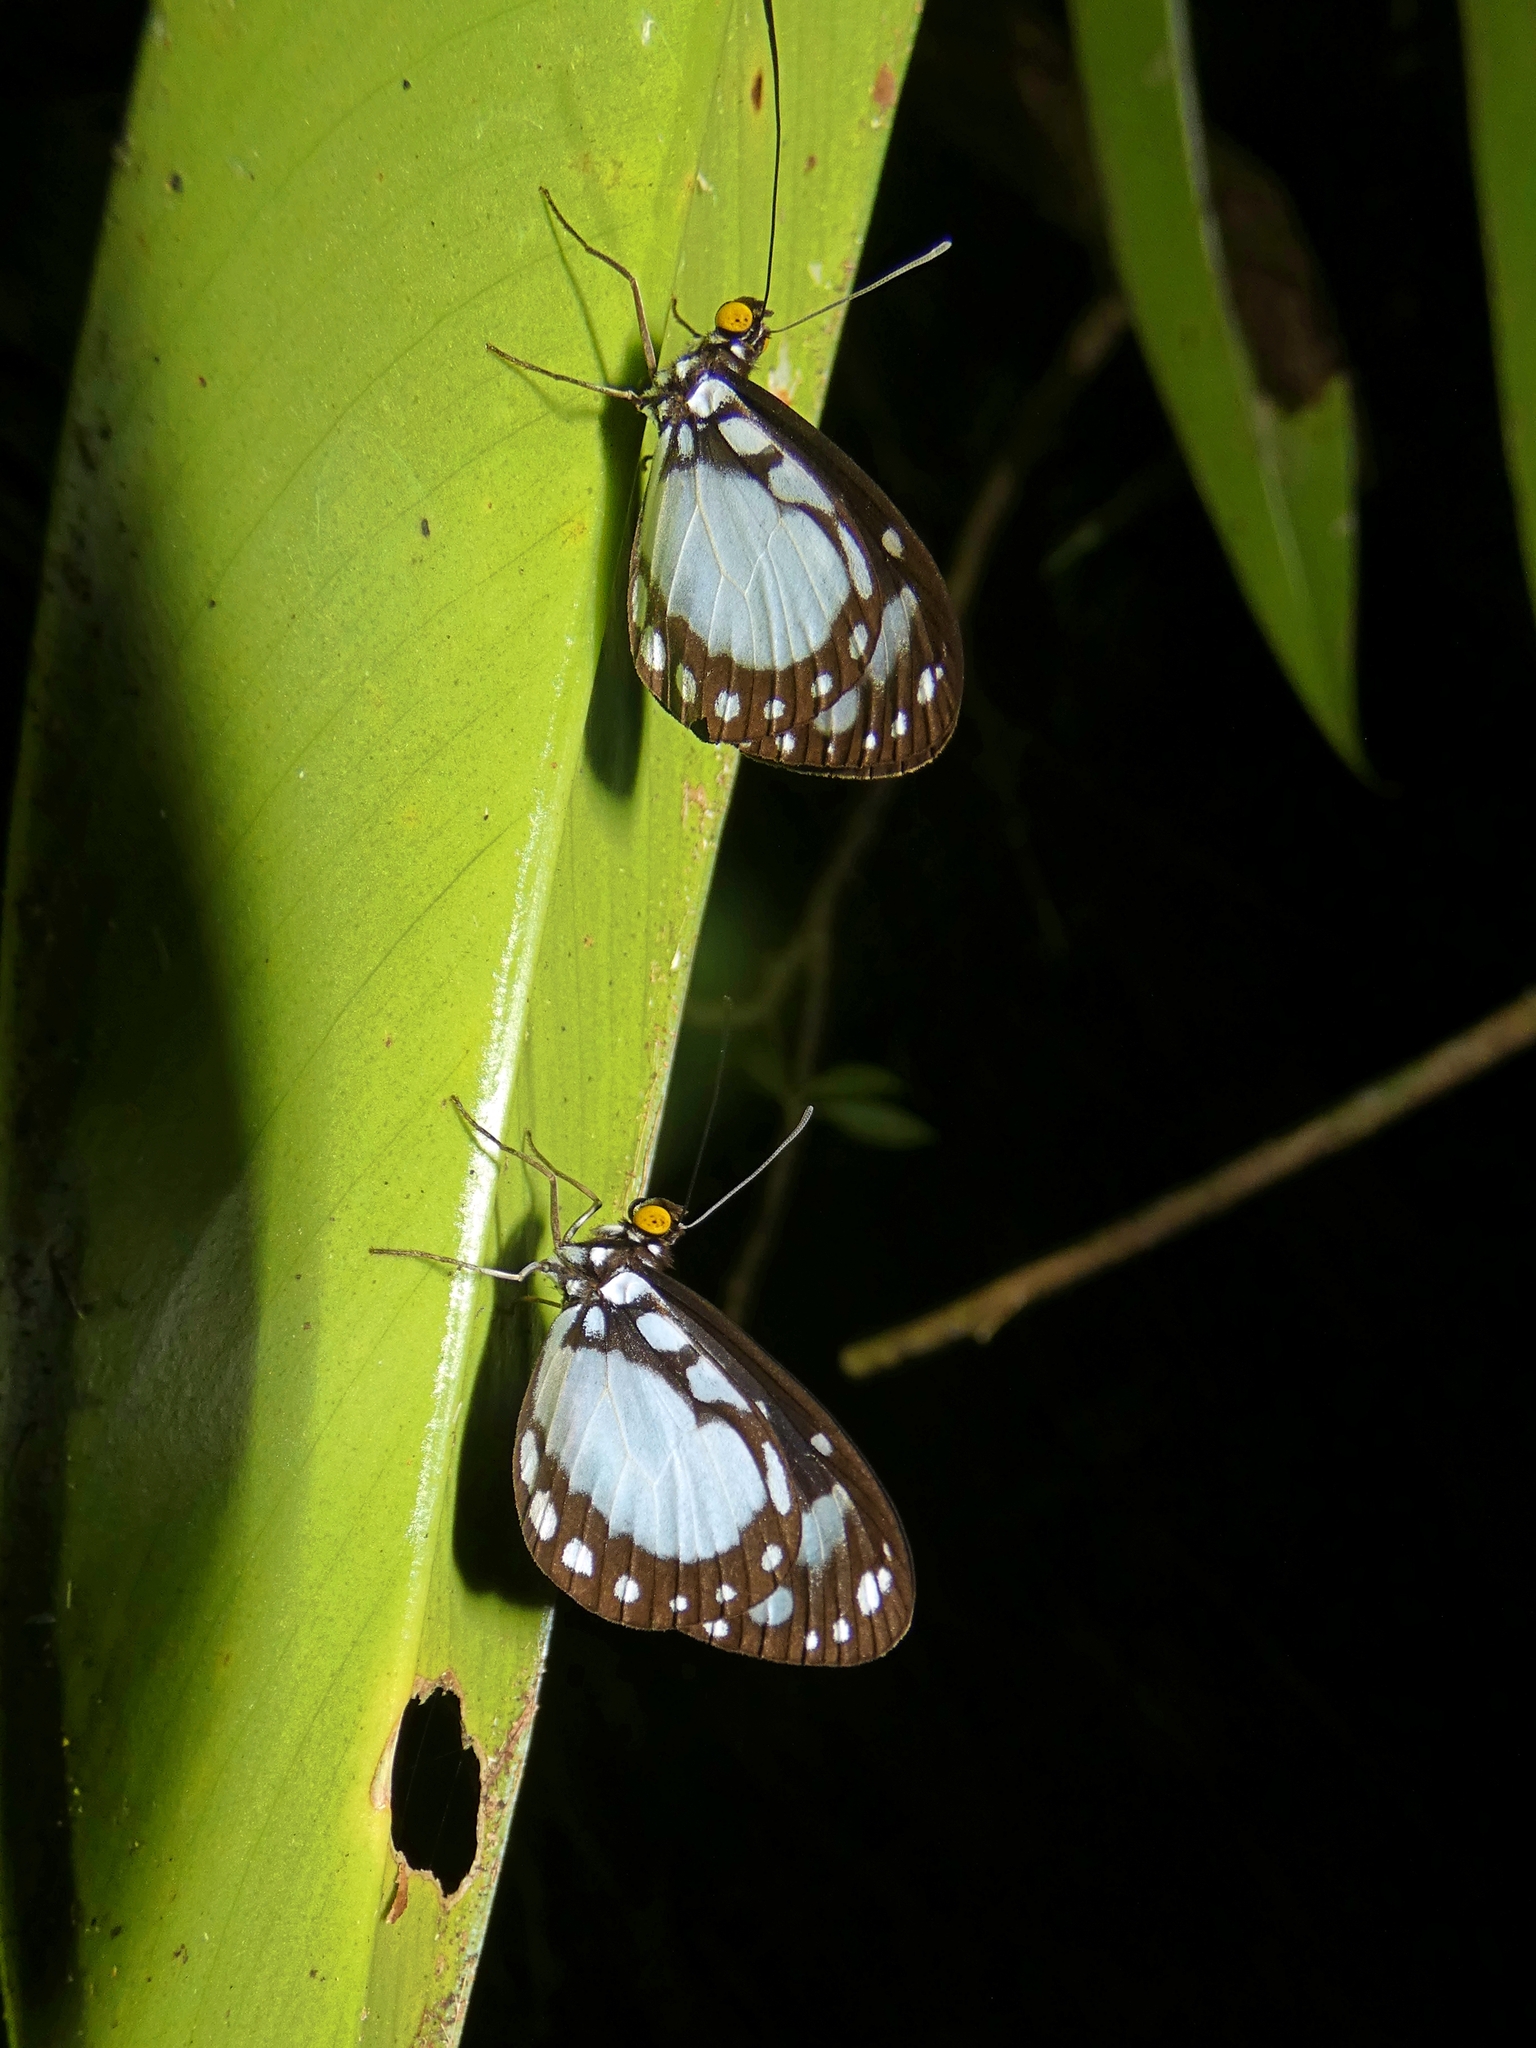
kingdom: Animalia
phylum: Arthropoda
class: Insecta
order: Lepidoptera
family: Nymphalidae
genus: Tellervo
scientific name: Tellervo zoilus
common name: Hamadryad
